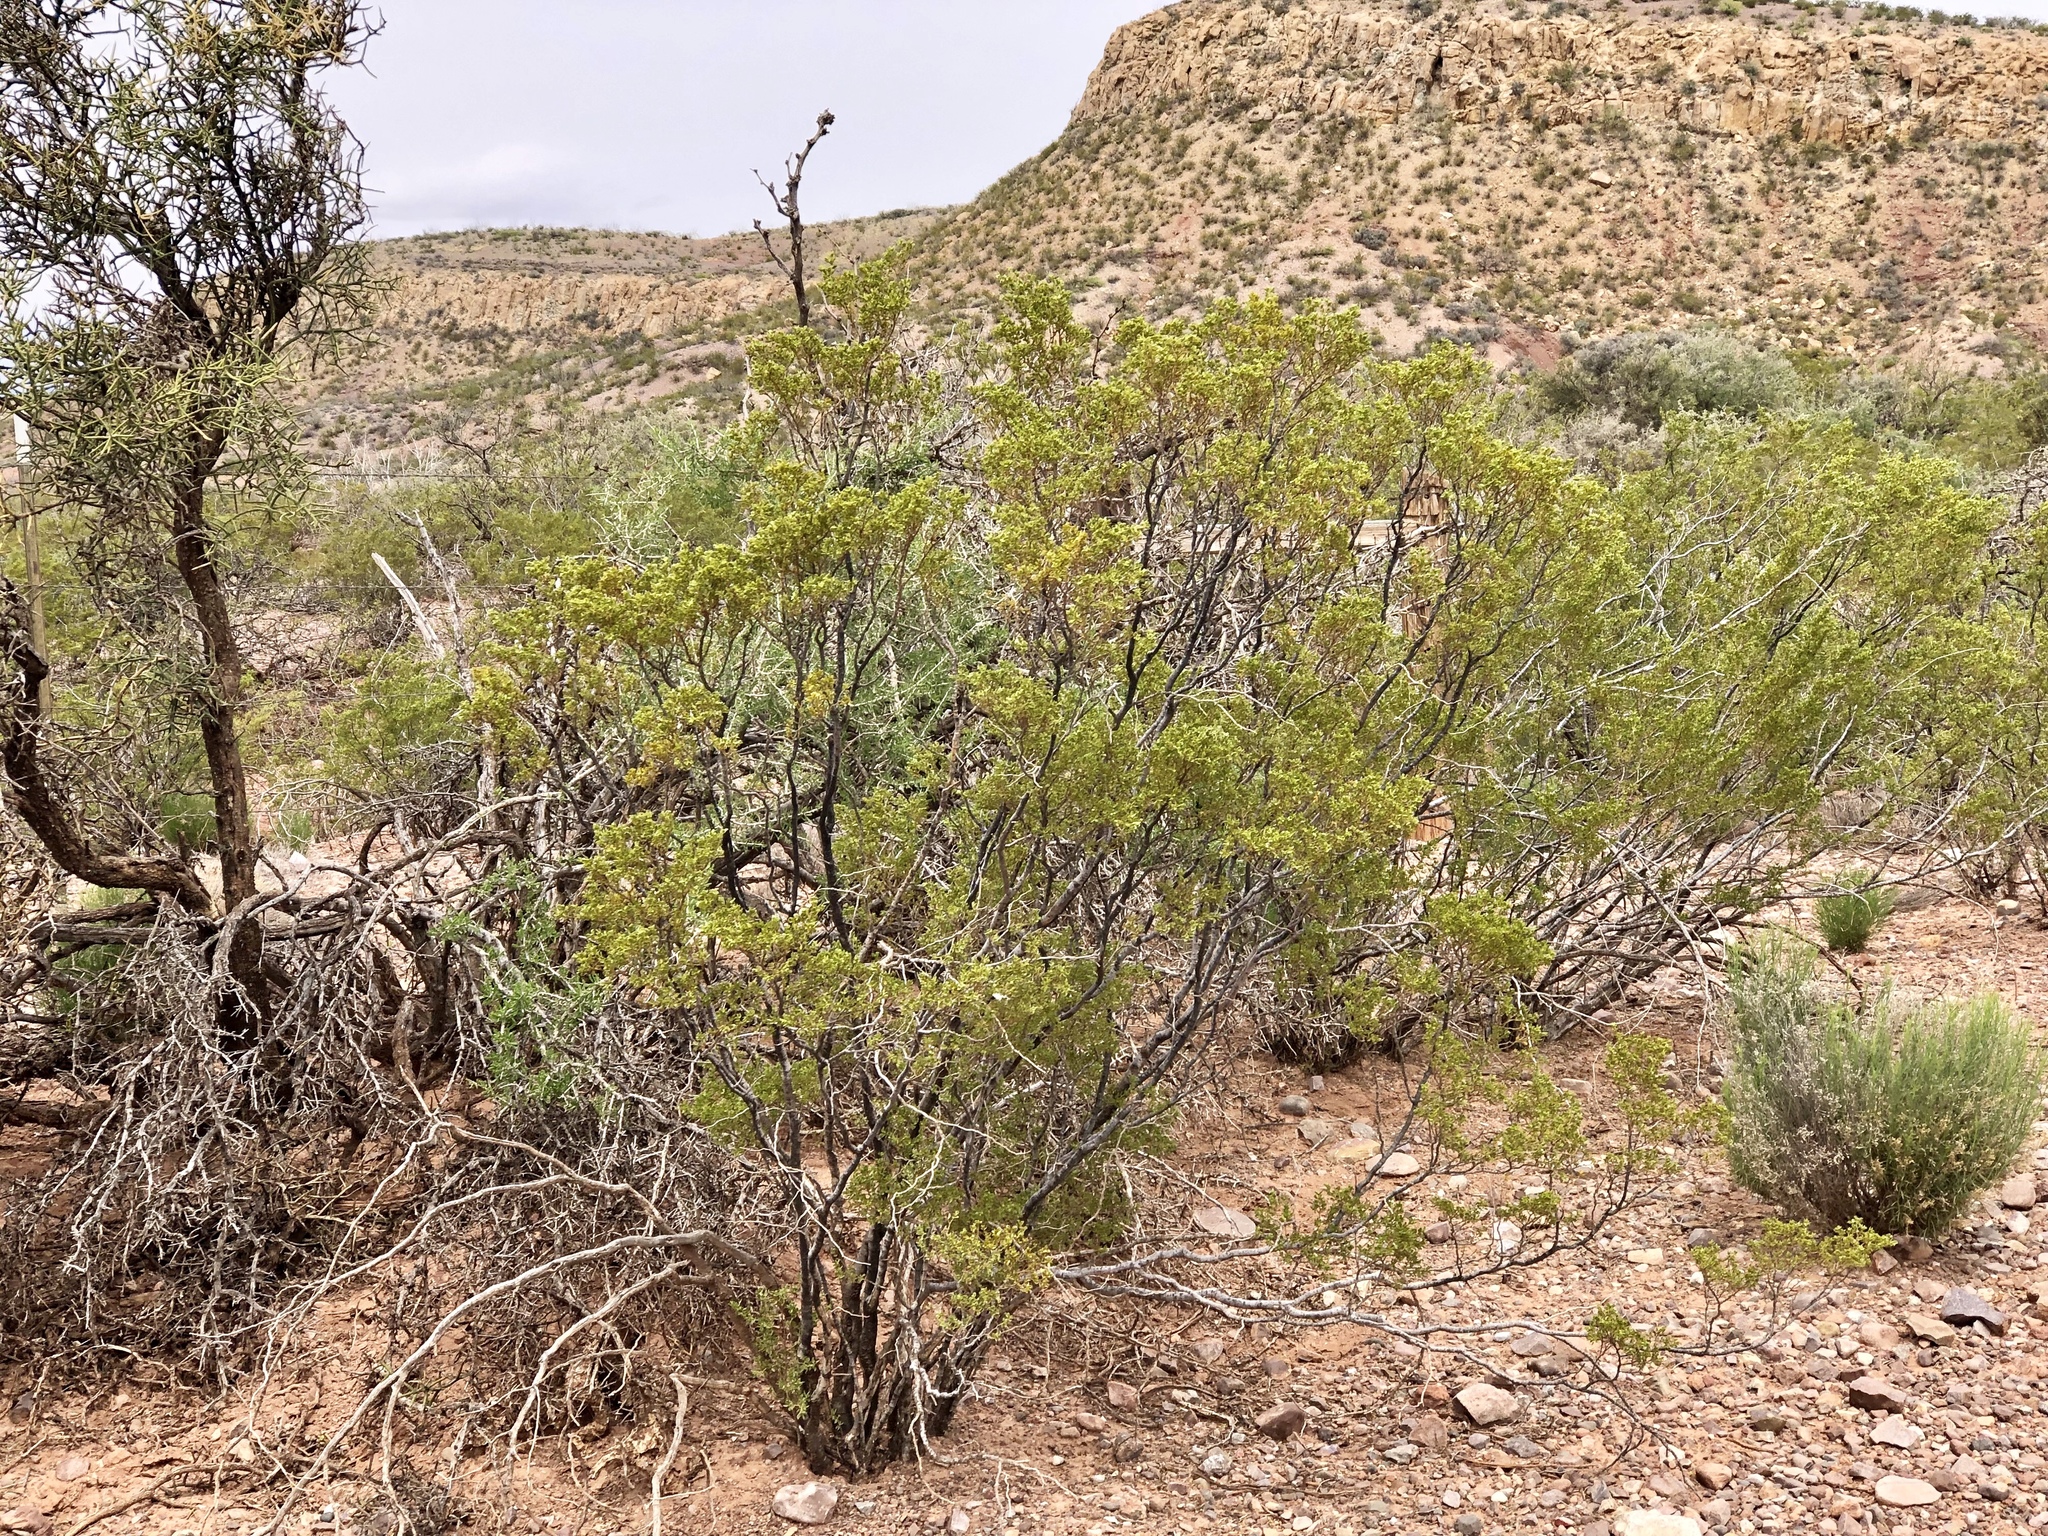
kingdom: Plantae
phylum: Tracheophyta
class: Magnoliopsida
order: Zygophyllales
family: Zygophyllaceae
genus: Larrea
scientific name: Larrea tridentata
